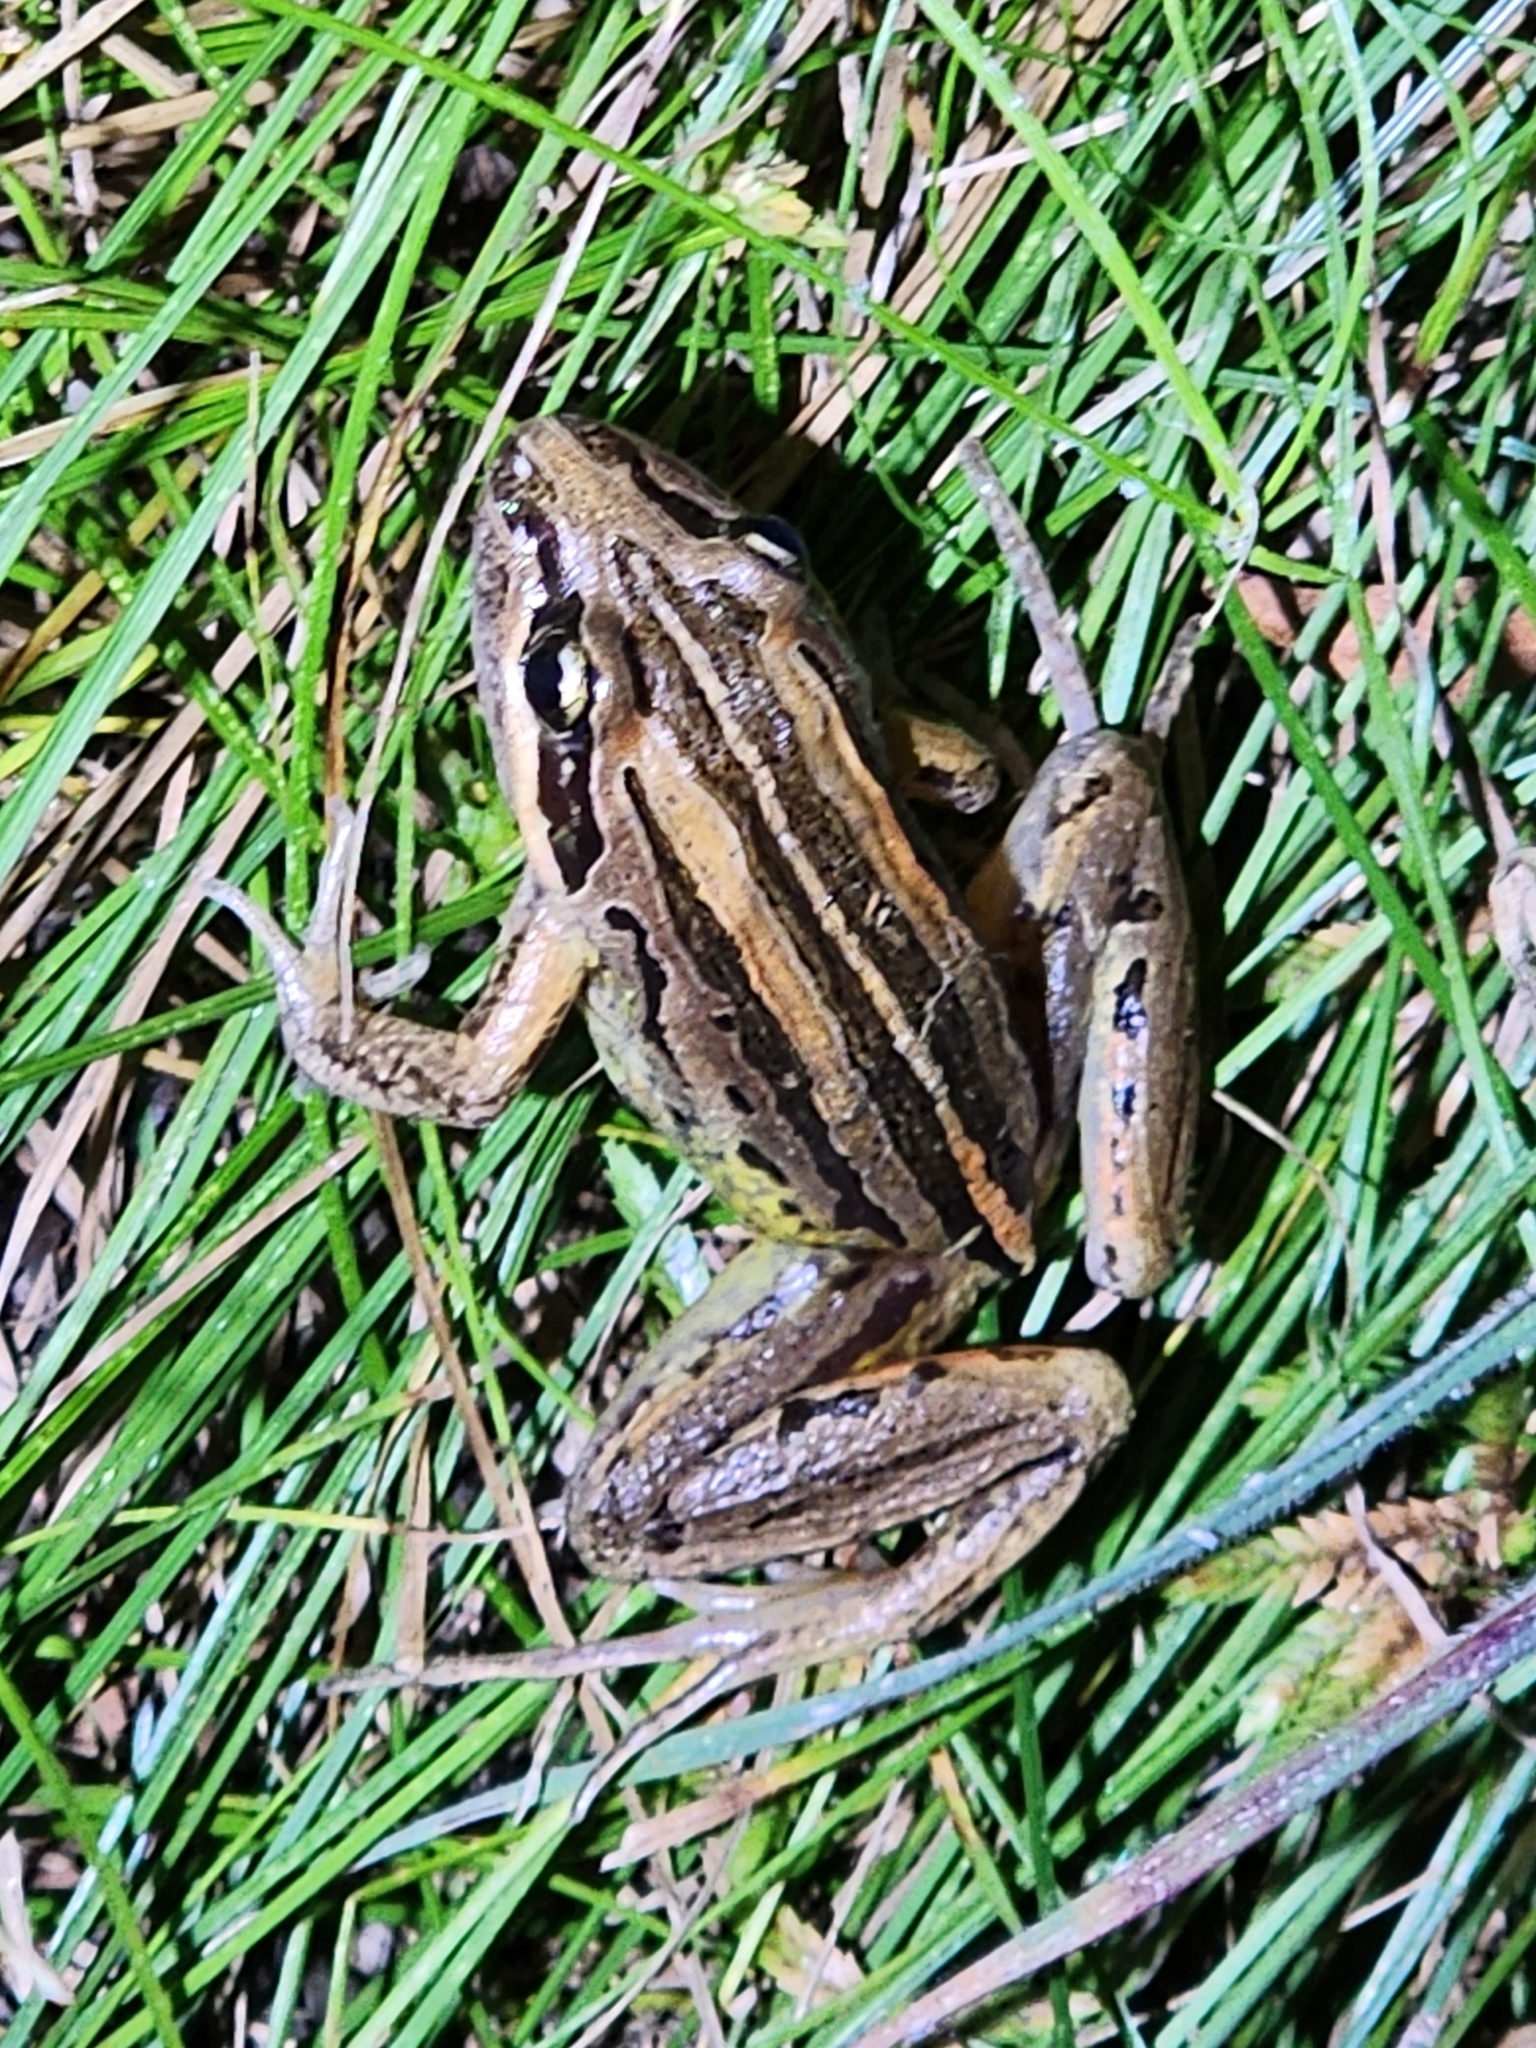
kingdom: Animalia
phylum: Chordata
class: Amphibia
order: Anura
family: Limnodynastidae
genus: Limnodynastes
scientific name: Limnodynastes peronii
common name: Brown frog
